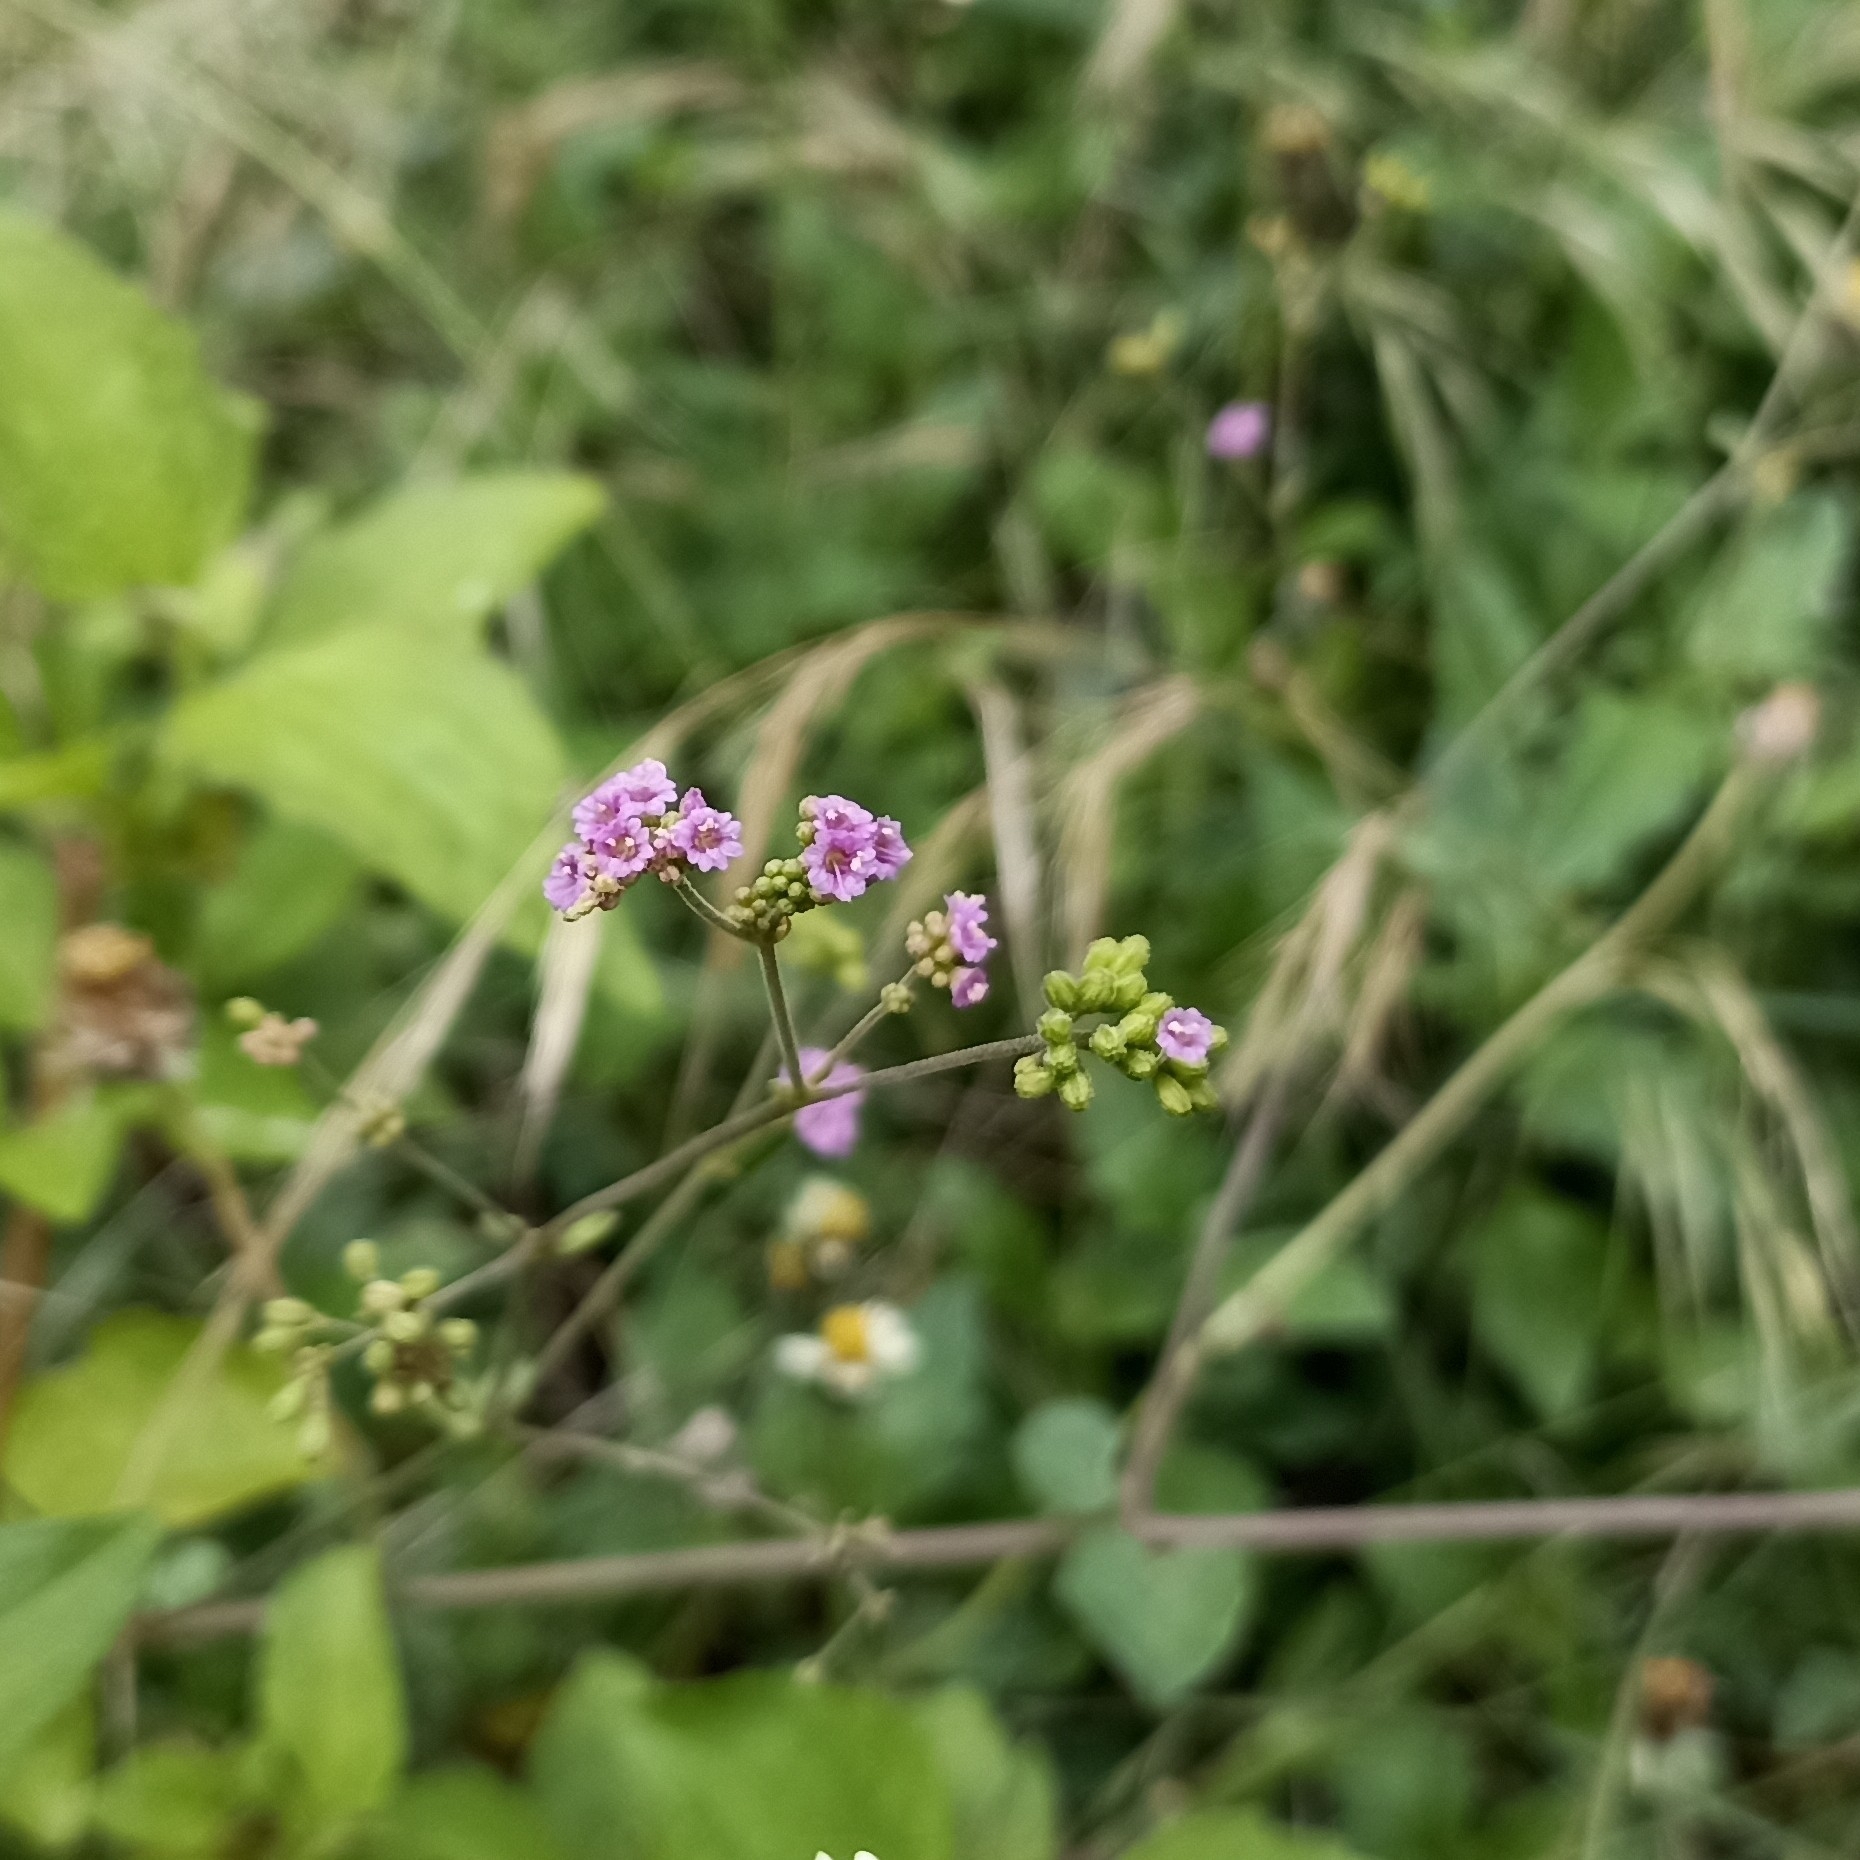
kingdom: Plantae
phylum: Tracheophyta
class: Magnoliopsida
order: Caryophyllales
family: Nyctaginaceae
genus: Boerhavia
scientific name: Boerhavia diffusa
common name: Red spiderling
